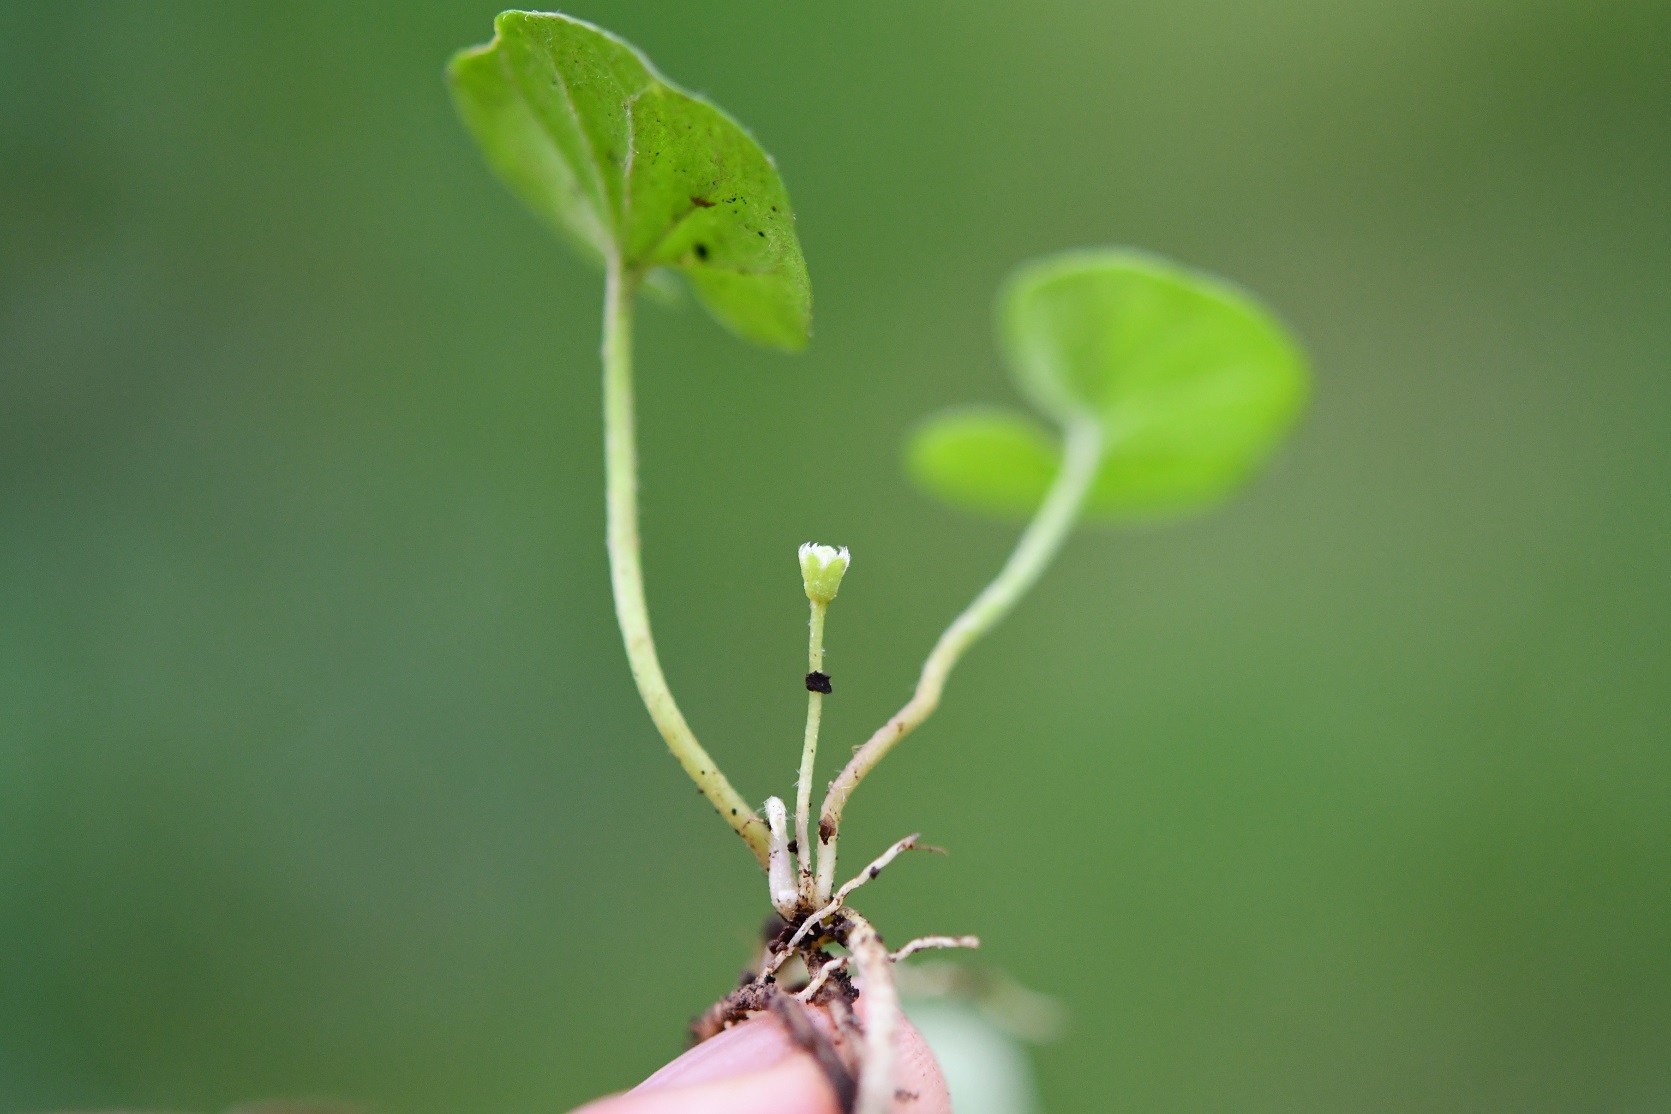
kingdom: Plantae
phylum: Tracheophyta
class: Magnoliopsida
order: Solanales
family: Convolvulaceae
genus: Dichondra
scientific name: Dichondra sericea
